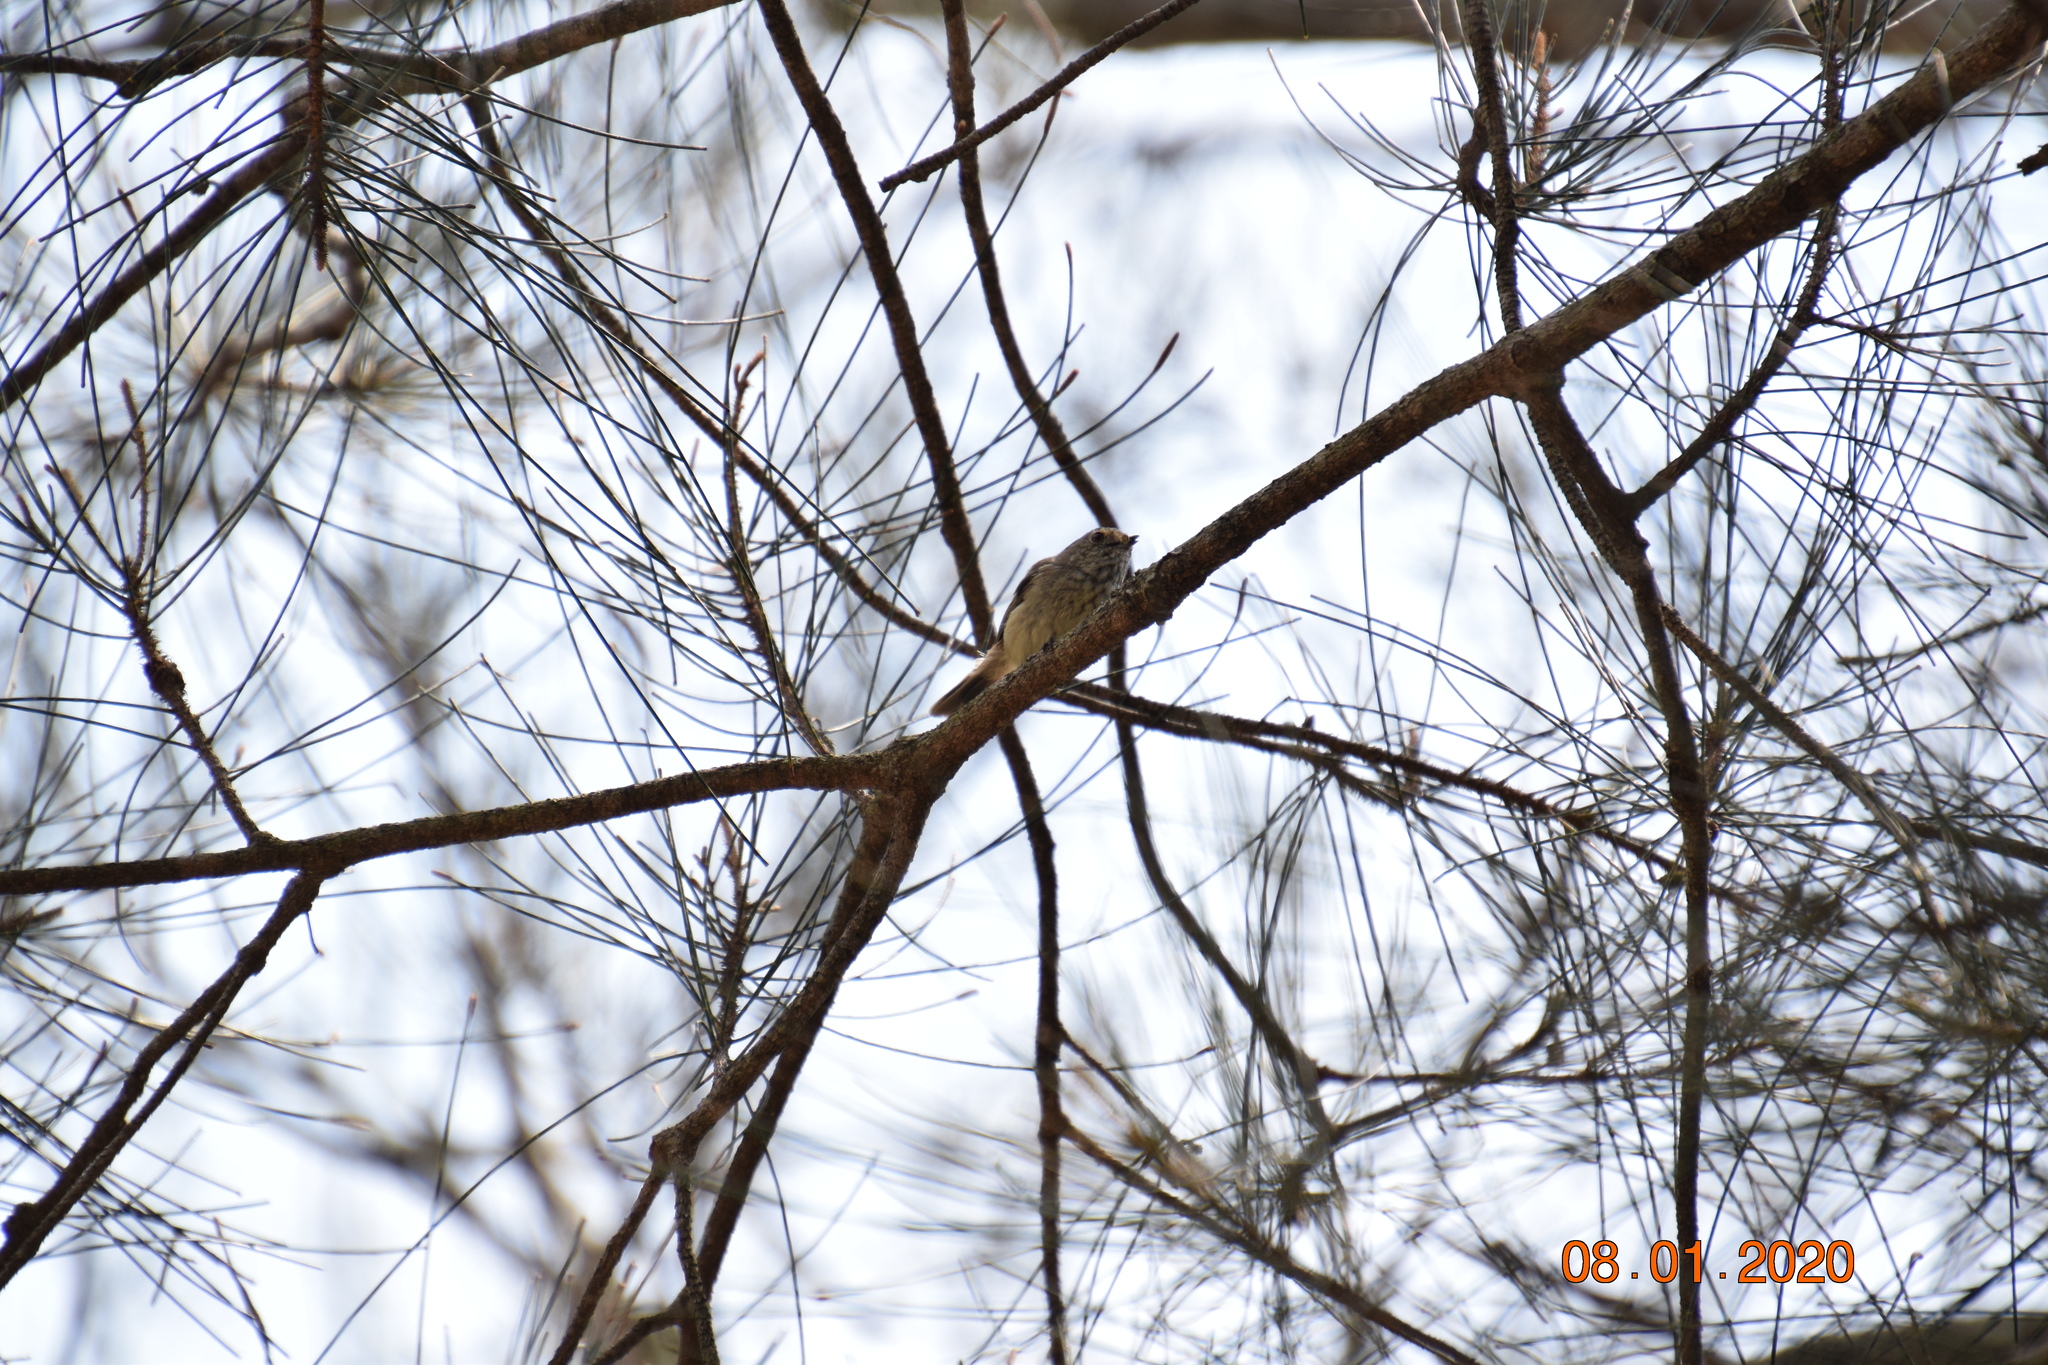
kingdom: Animalia
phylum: Chordata
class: Aves
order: Passeriformes
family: Acanthizidae
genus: Acanthiza
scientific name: Acanthiza pusilla
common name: Brown thornbill
